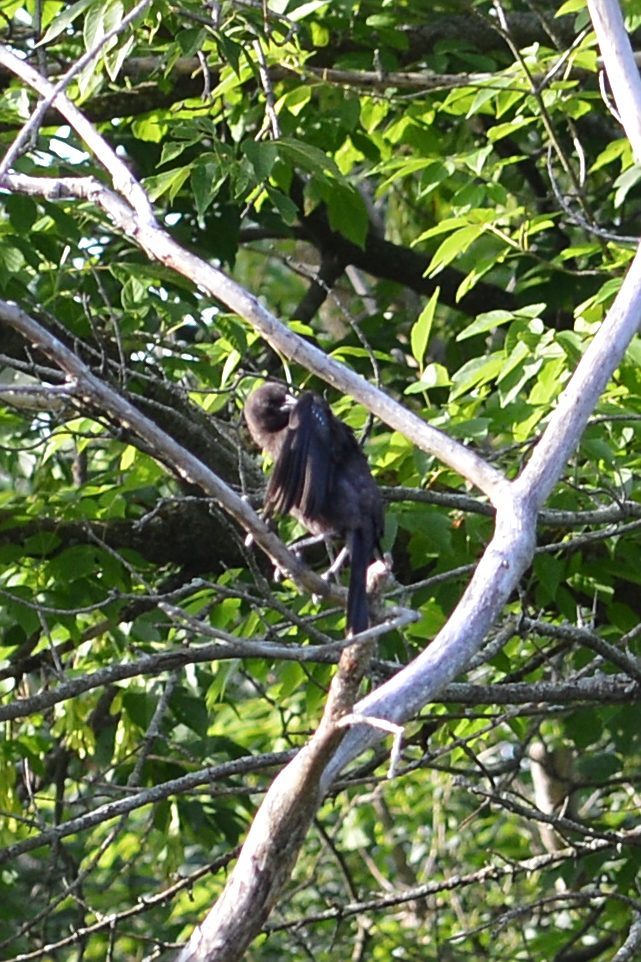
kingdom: Animalia
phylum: Chordata
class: Aves
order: Passeriformes
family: Icteridae
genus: Molothrus
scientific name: Molothrus ater
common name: Brown-headed cowbird
